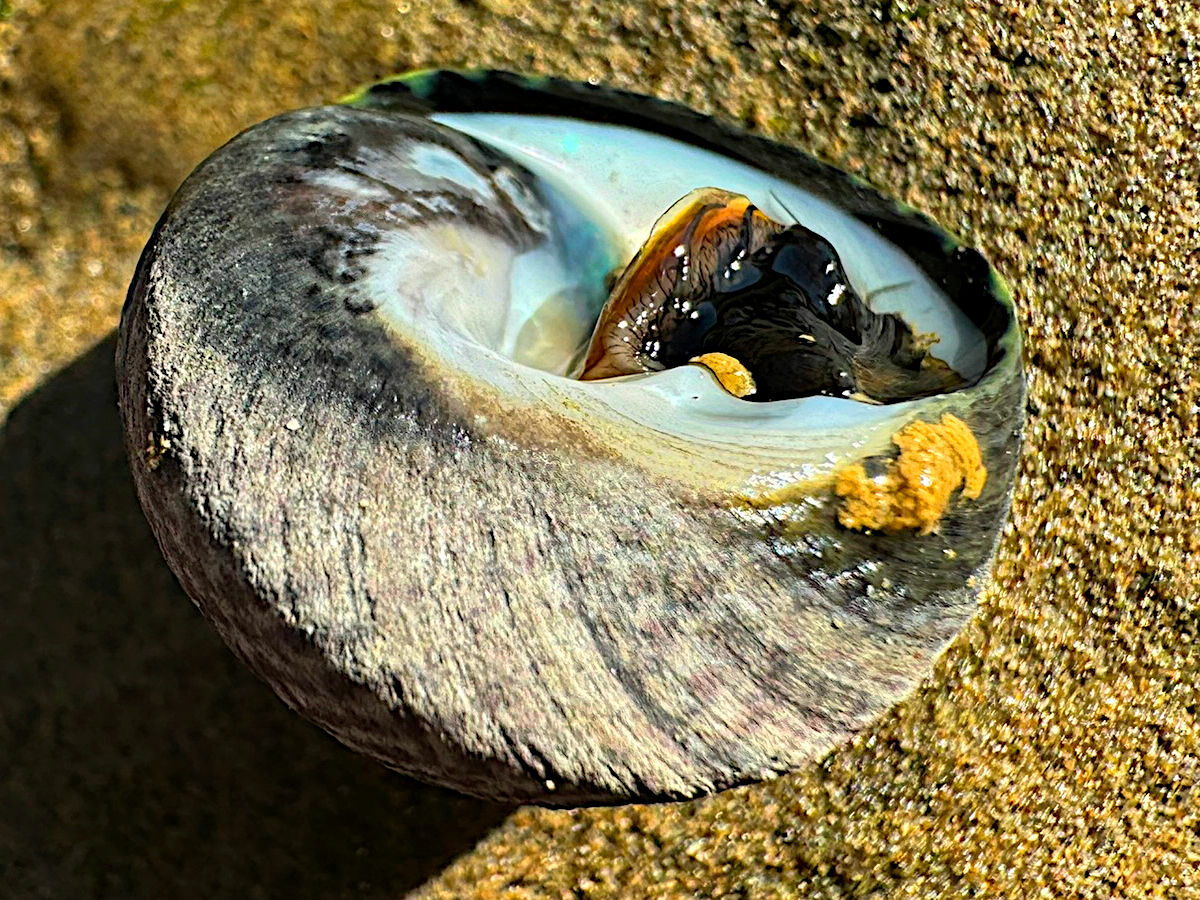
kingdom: Animalia
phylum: Mollusca
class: Gastropoda
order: Trochida
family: Tegulidae
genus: Tegula
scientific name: Tegula gallina
